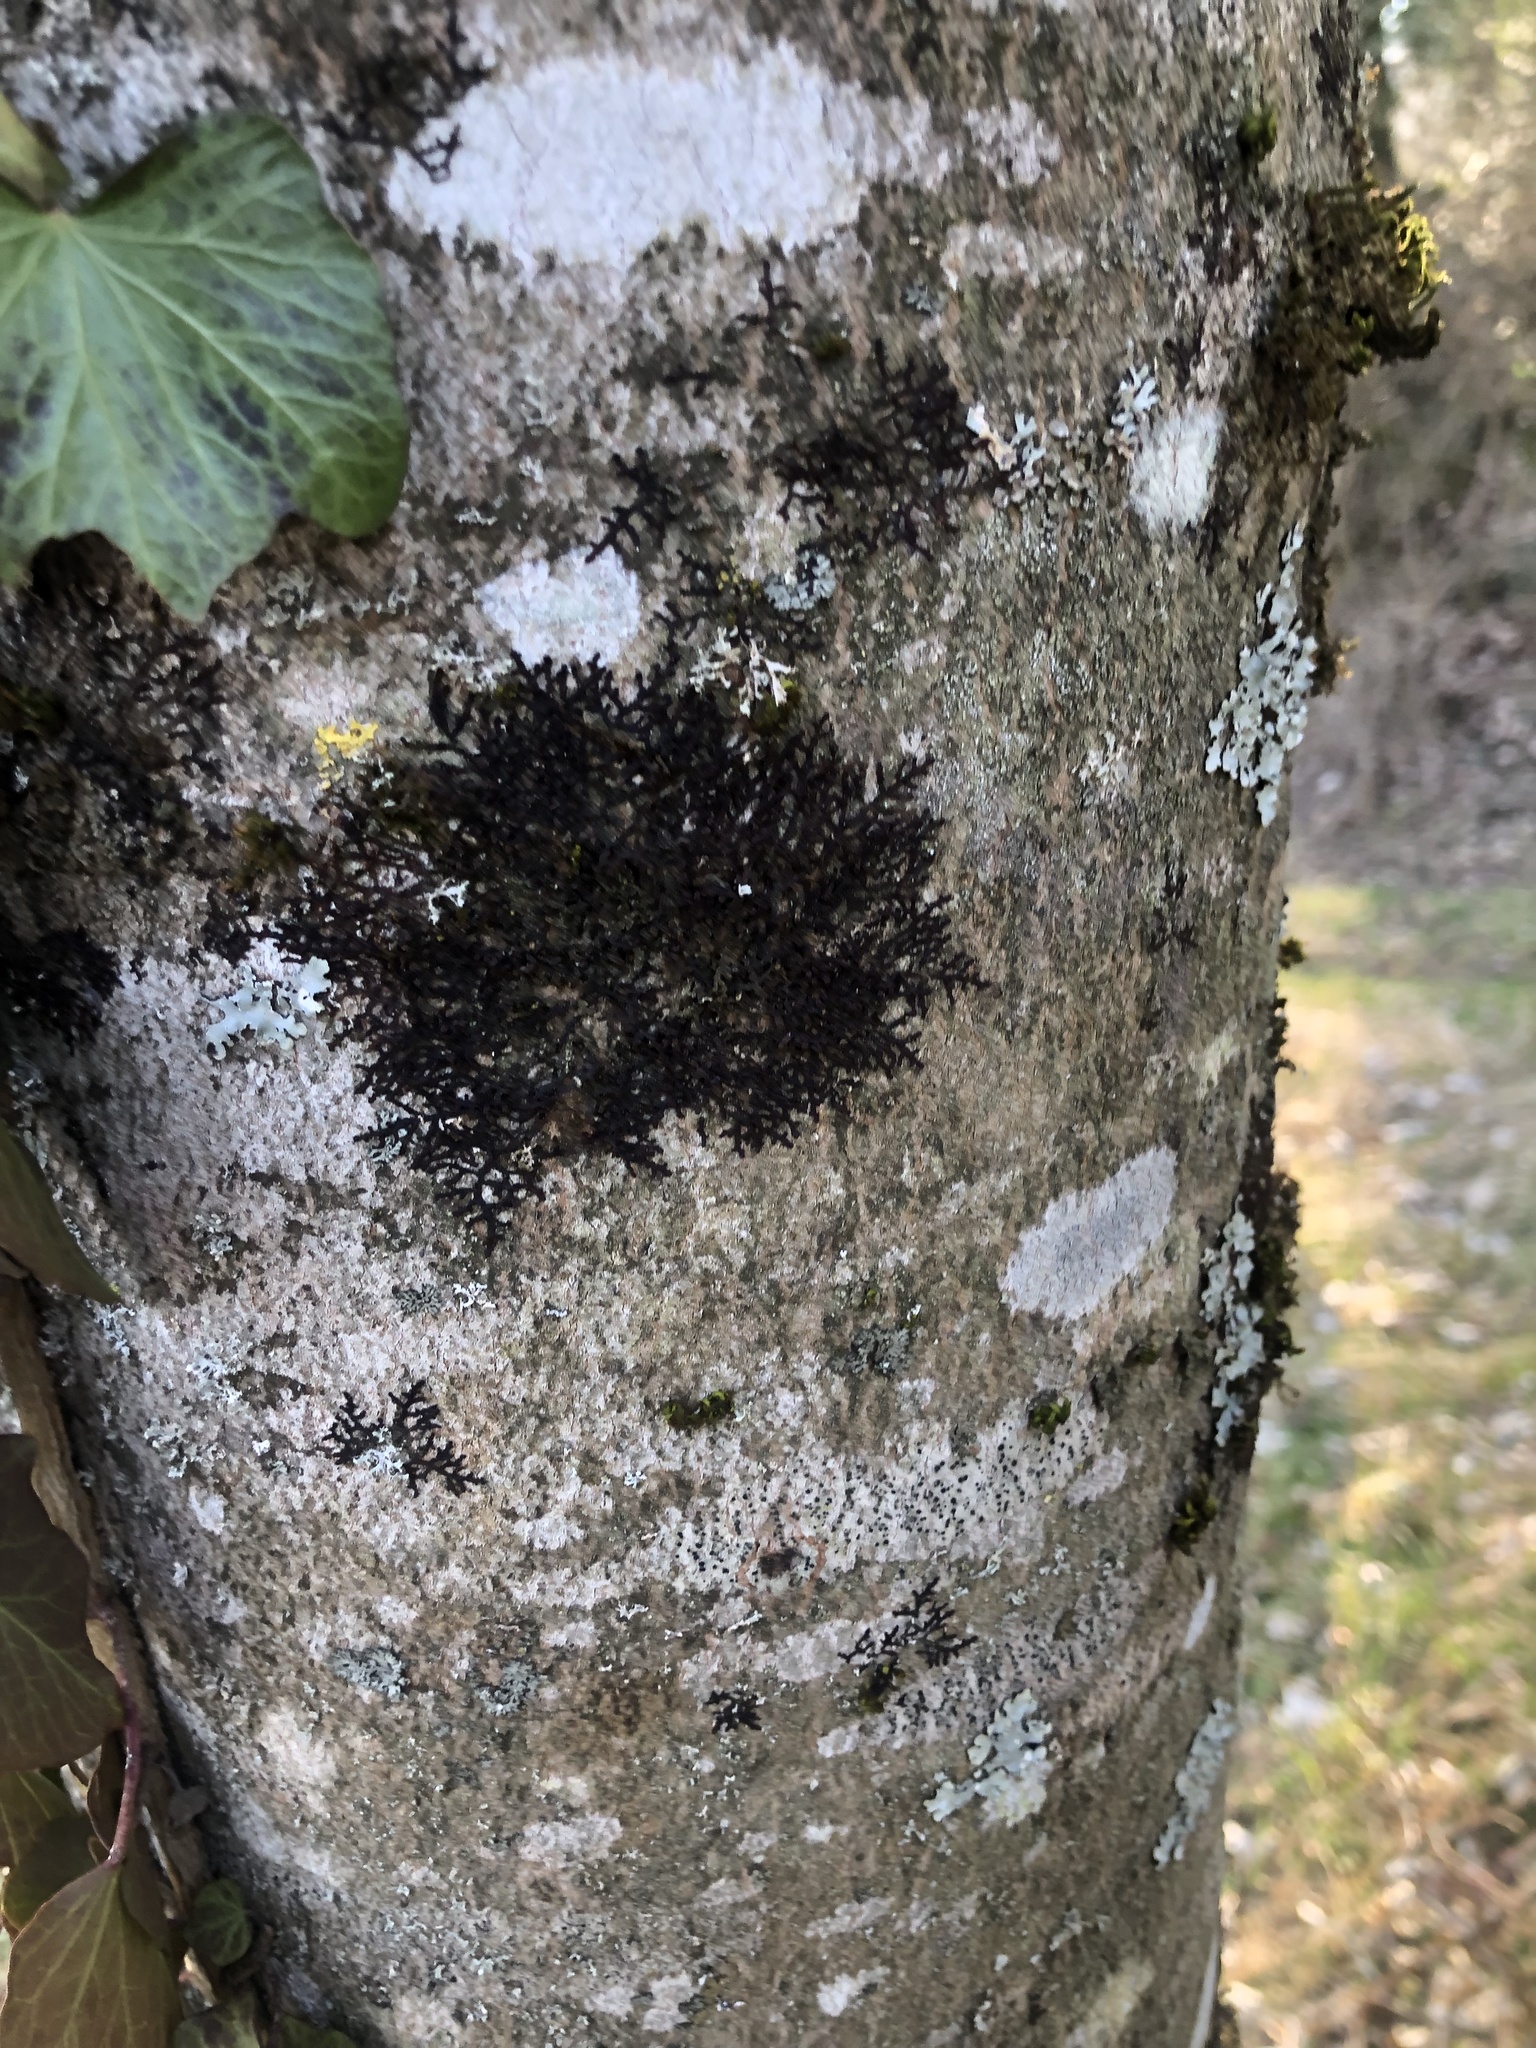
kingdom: Plantae
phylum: Marchantiophyta
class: Jungermanniopsida
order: Porellales
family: Frullaniaceae
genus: Frullania
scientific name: Frullania dilatata
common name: Dilated scalewort
